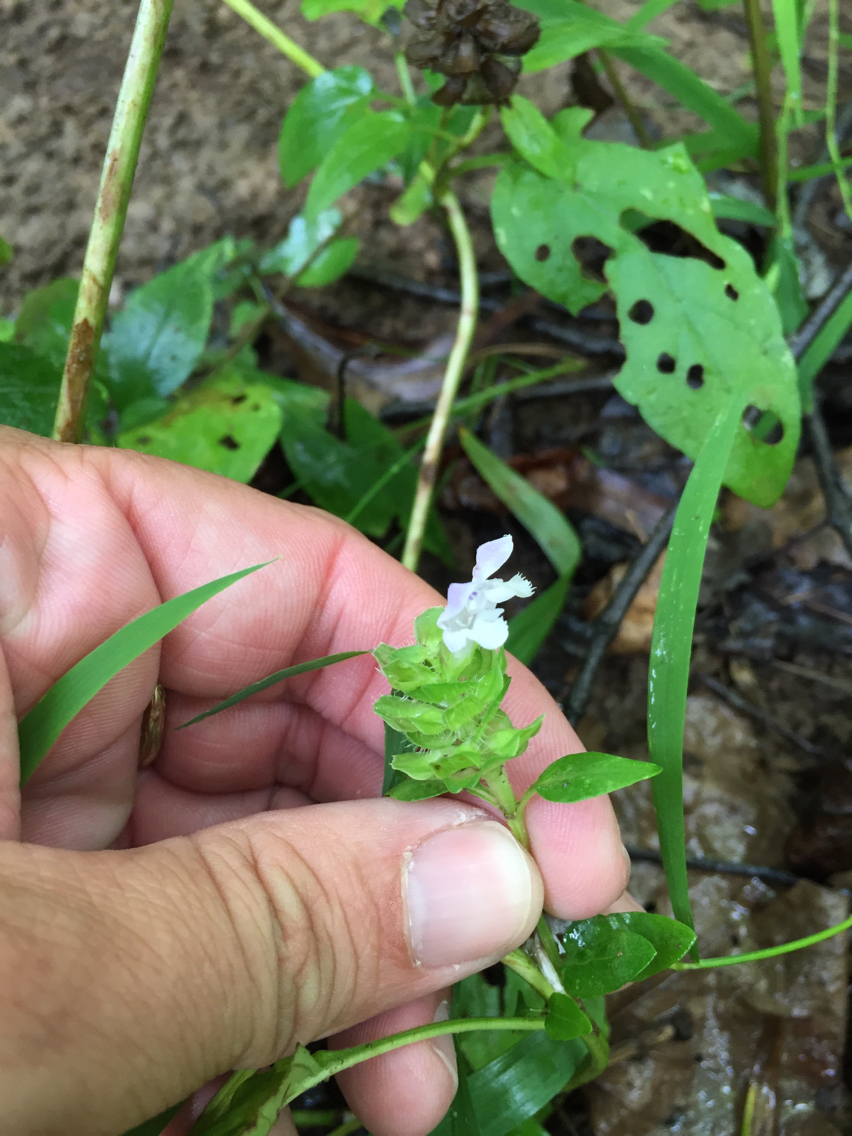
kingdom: Plantae
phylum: Tracheophyta
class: Magnoliopsida
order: Lamiales
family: Lamiaceae
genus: Prunella
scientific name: Prunella vulgaris
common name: Heal-all
